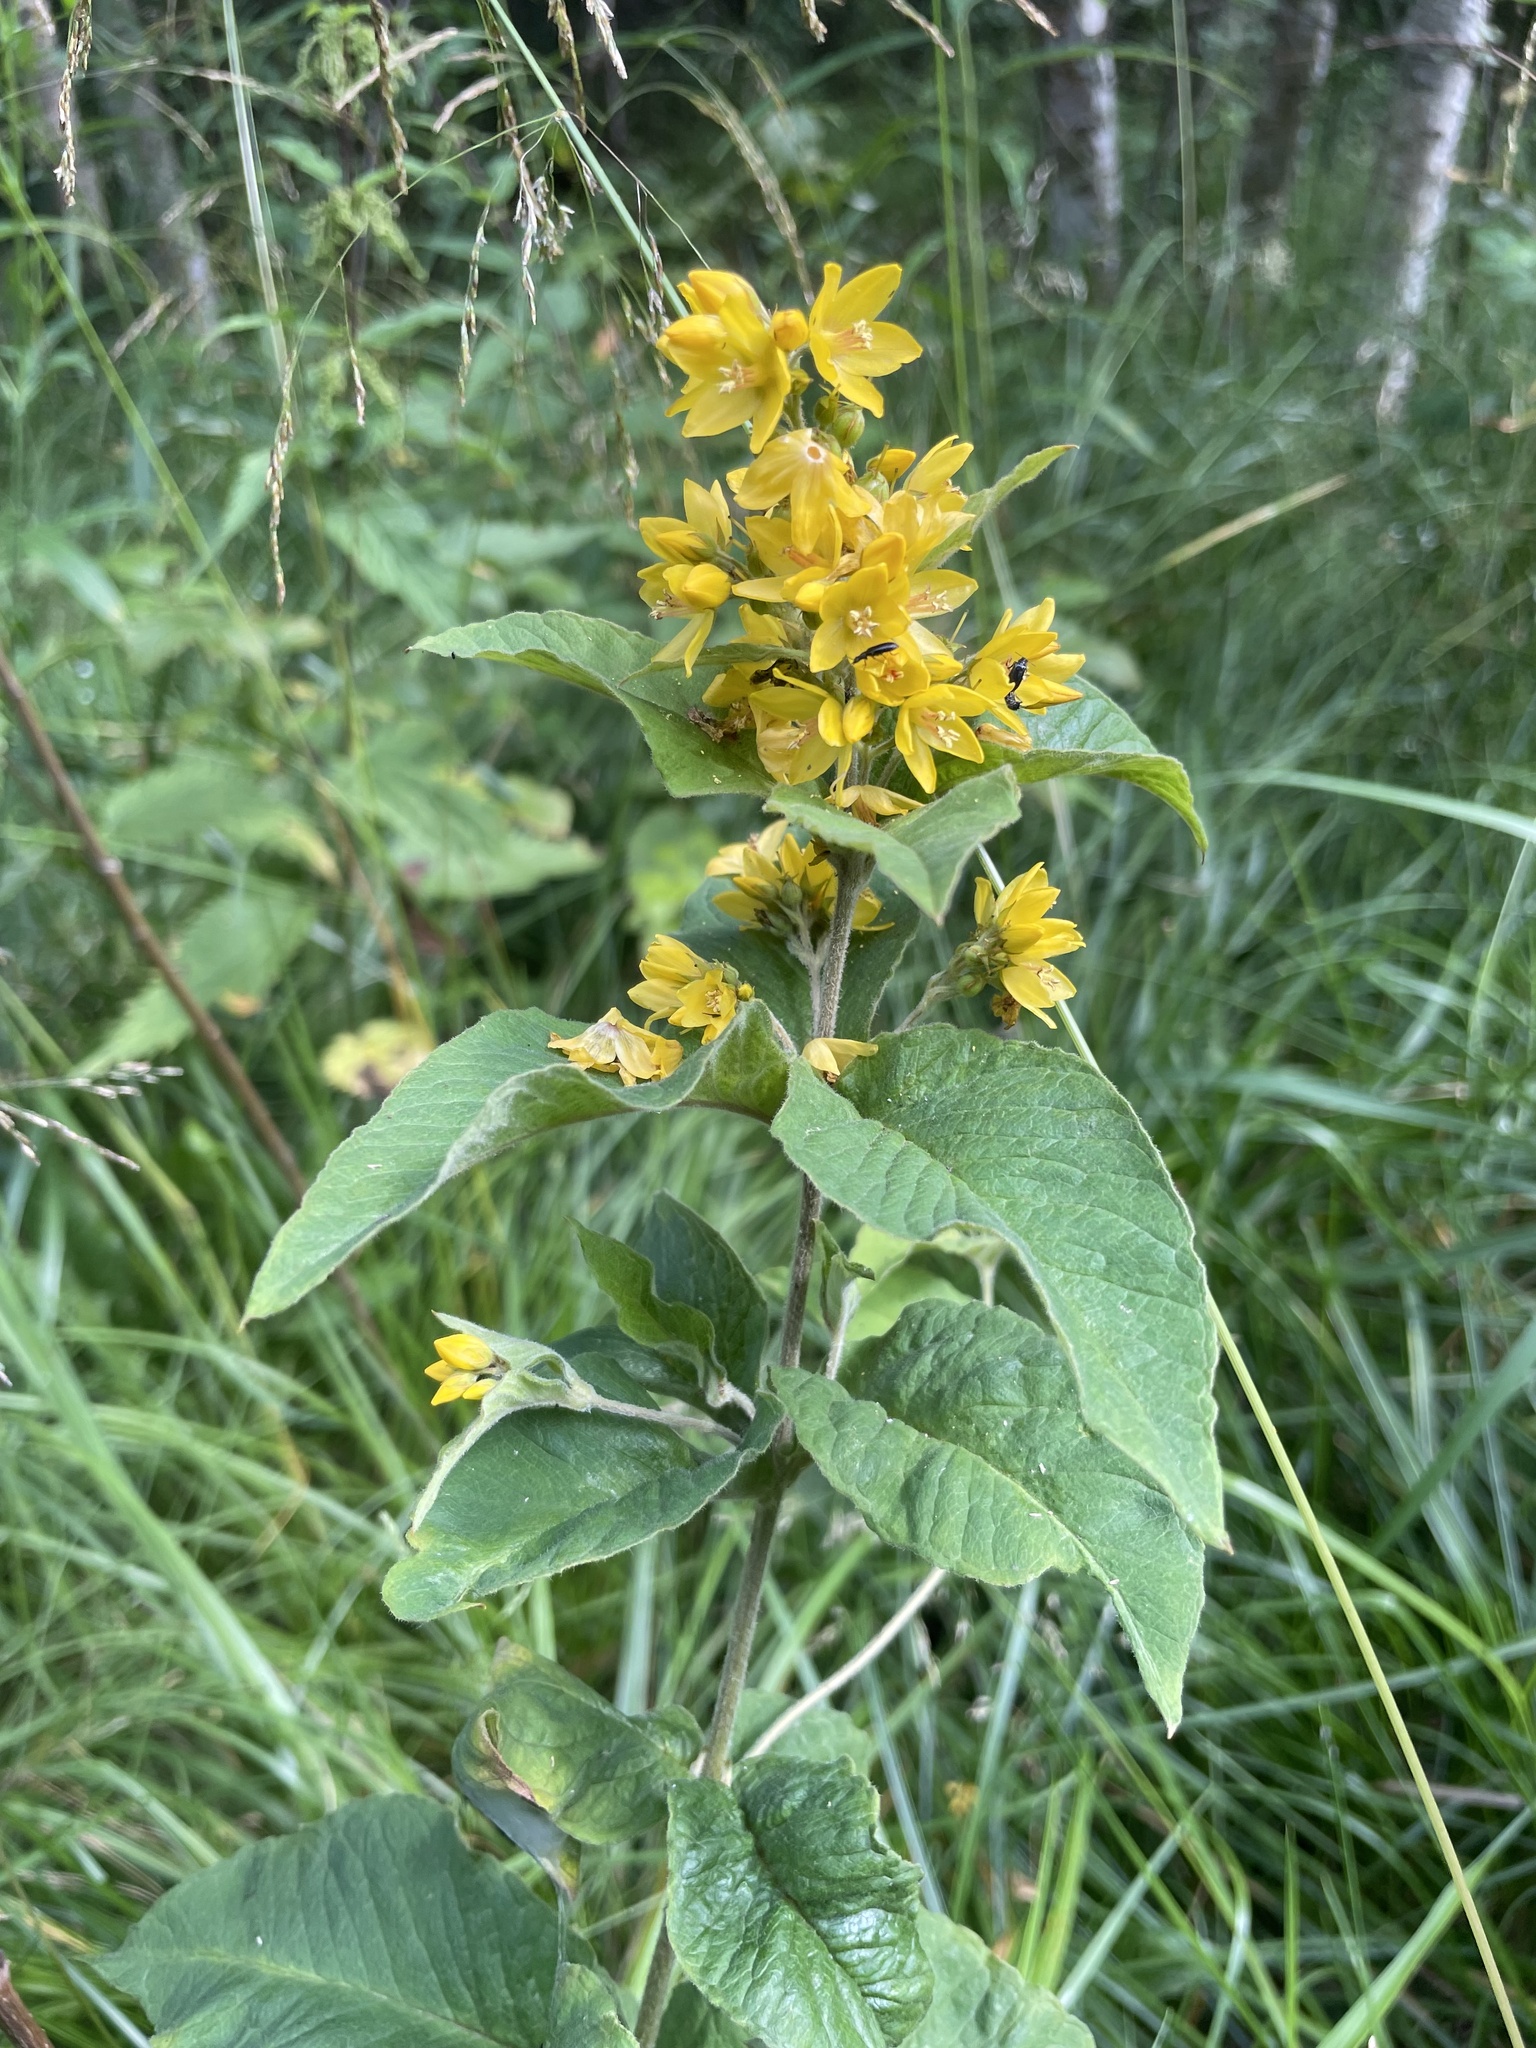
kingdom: Plantae
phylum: Tracheophyta
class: Magnoliopsida
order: Ericales
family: Primulaceae
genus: Lysimachia
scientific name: Lysimachia vulgaris
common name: Yellow loosestrife
